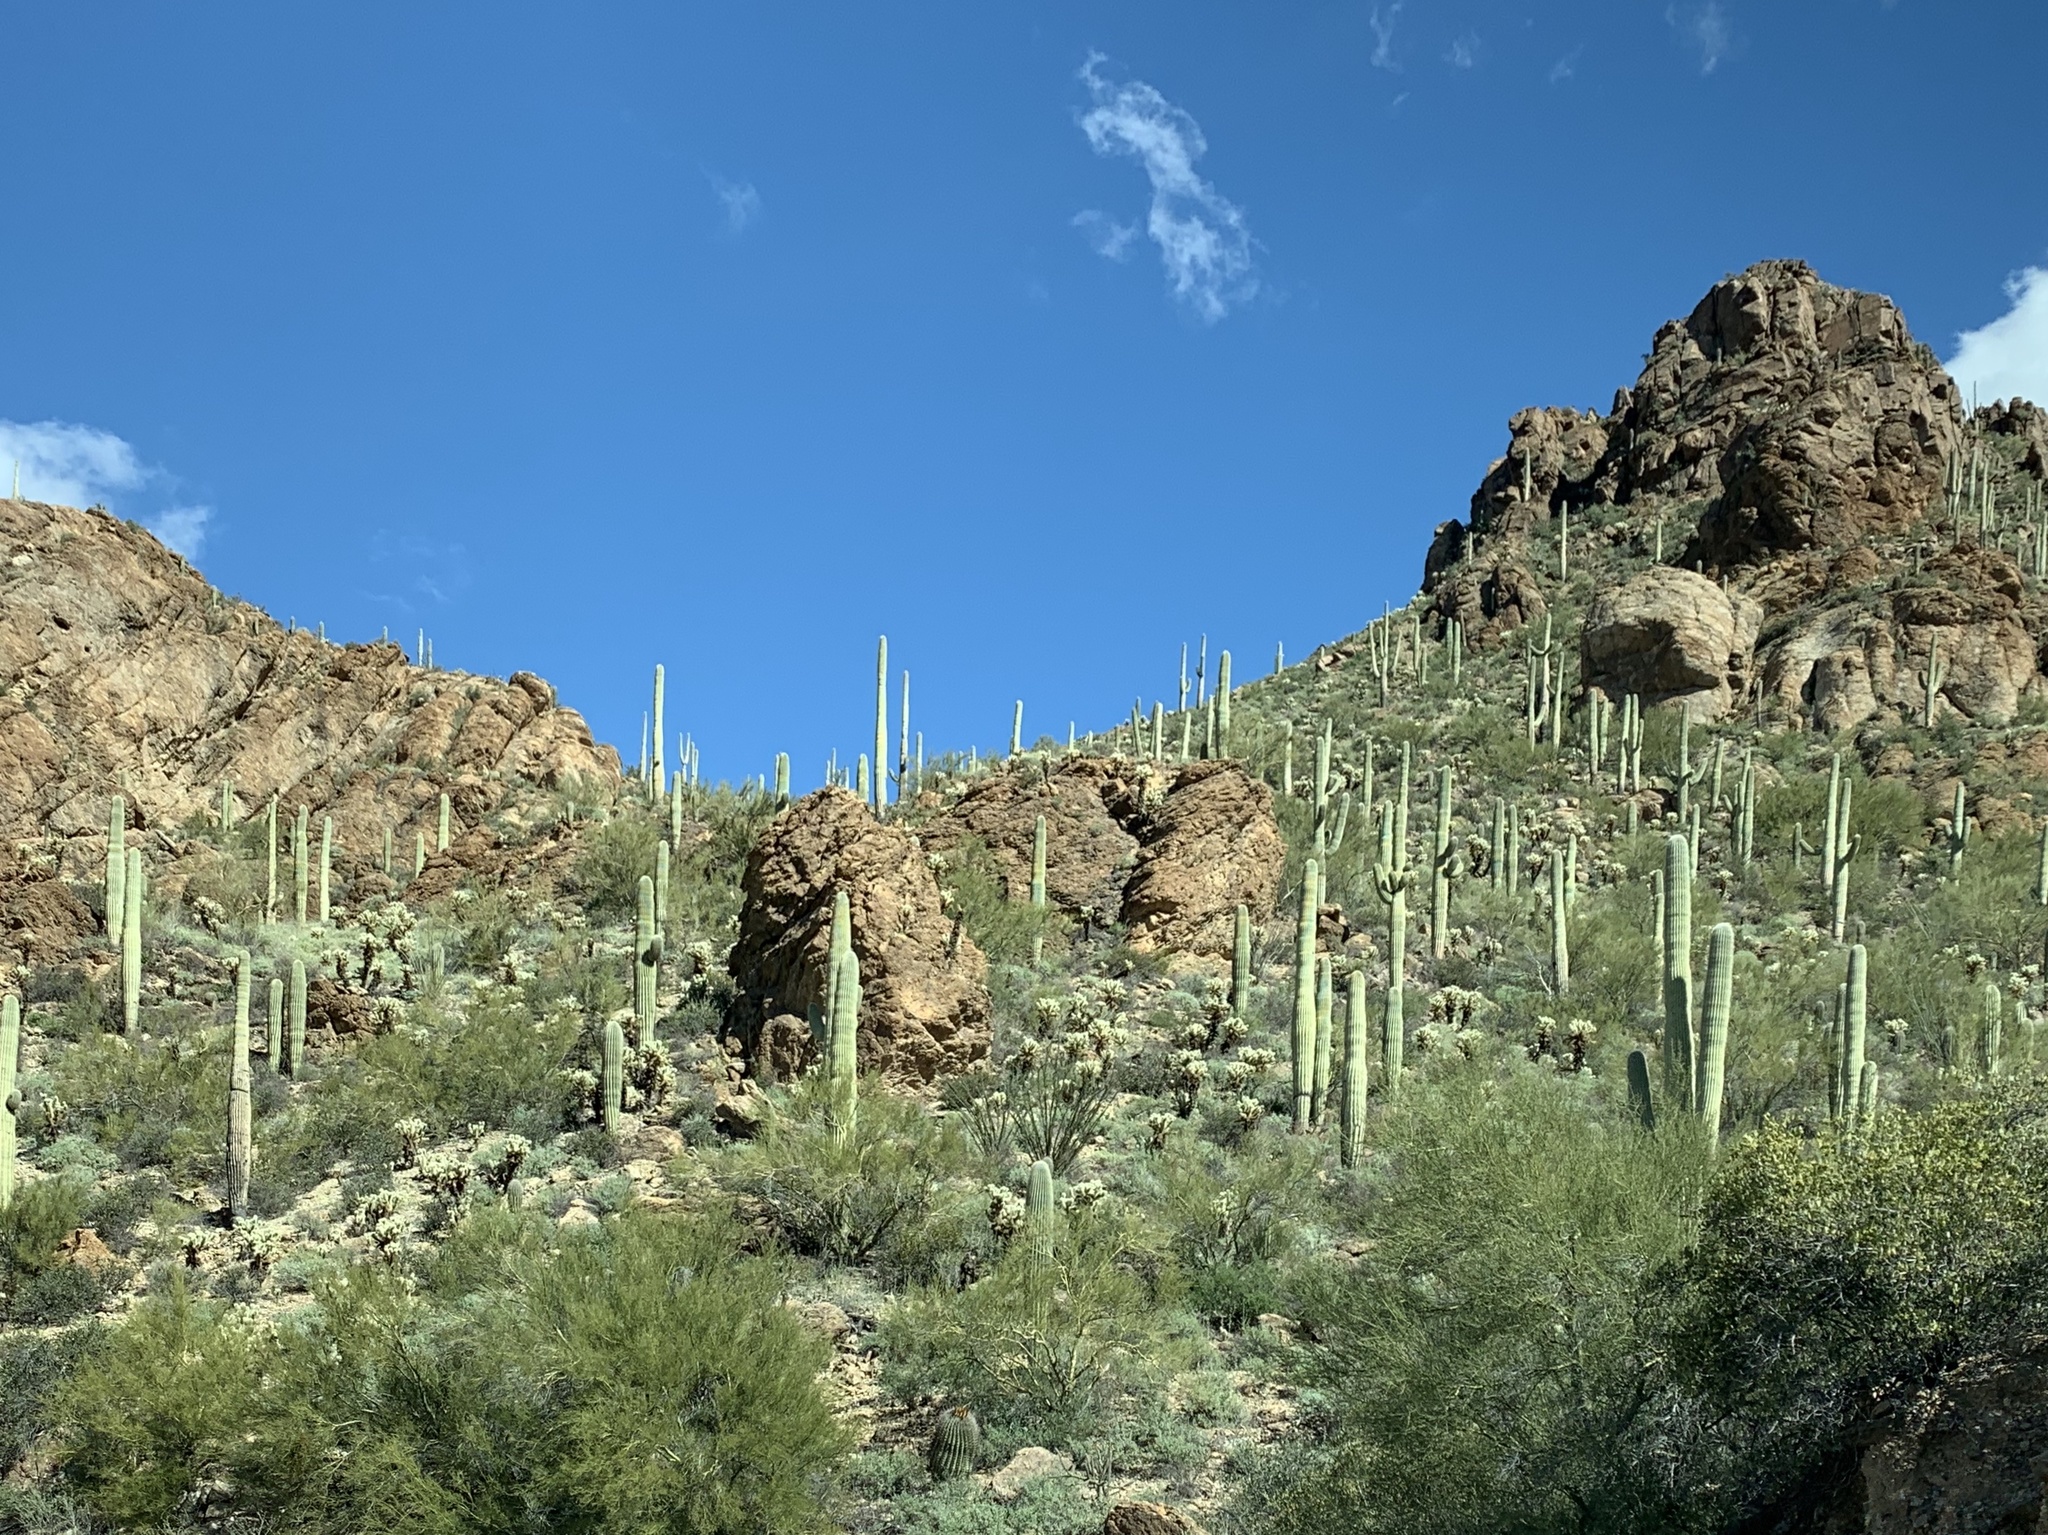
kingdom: Plantae
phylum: Tracheophyta
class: Magnoliopsida
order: Caryophyllales
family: Cactaceae
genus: Carnegiea
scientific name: Carnegiea gigantea
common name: Saguaro
